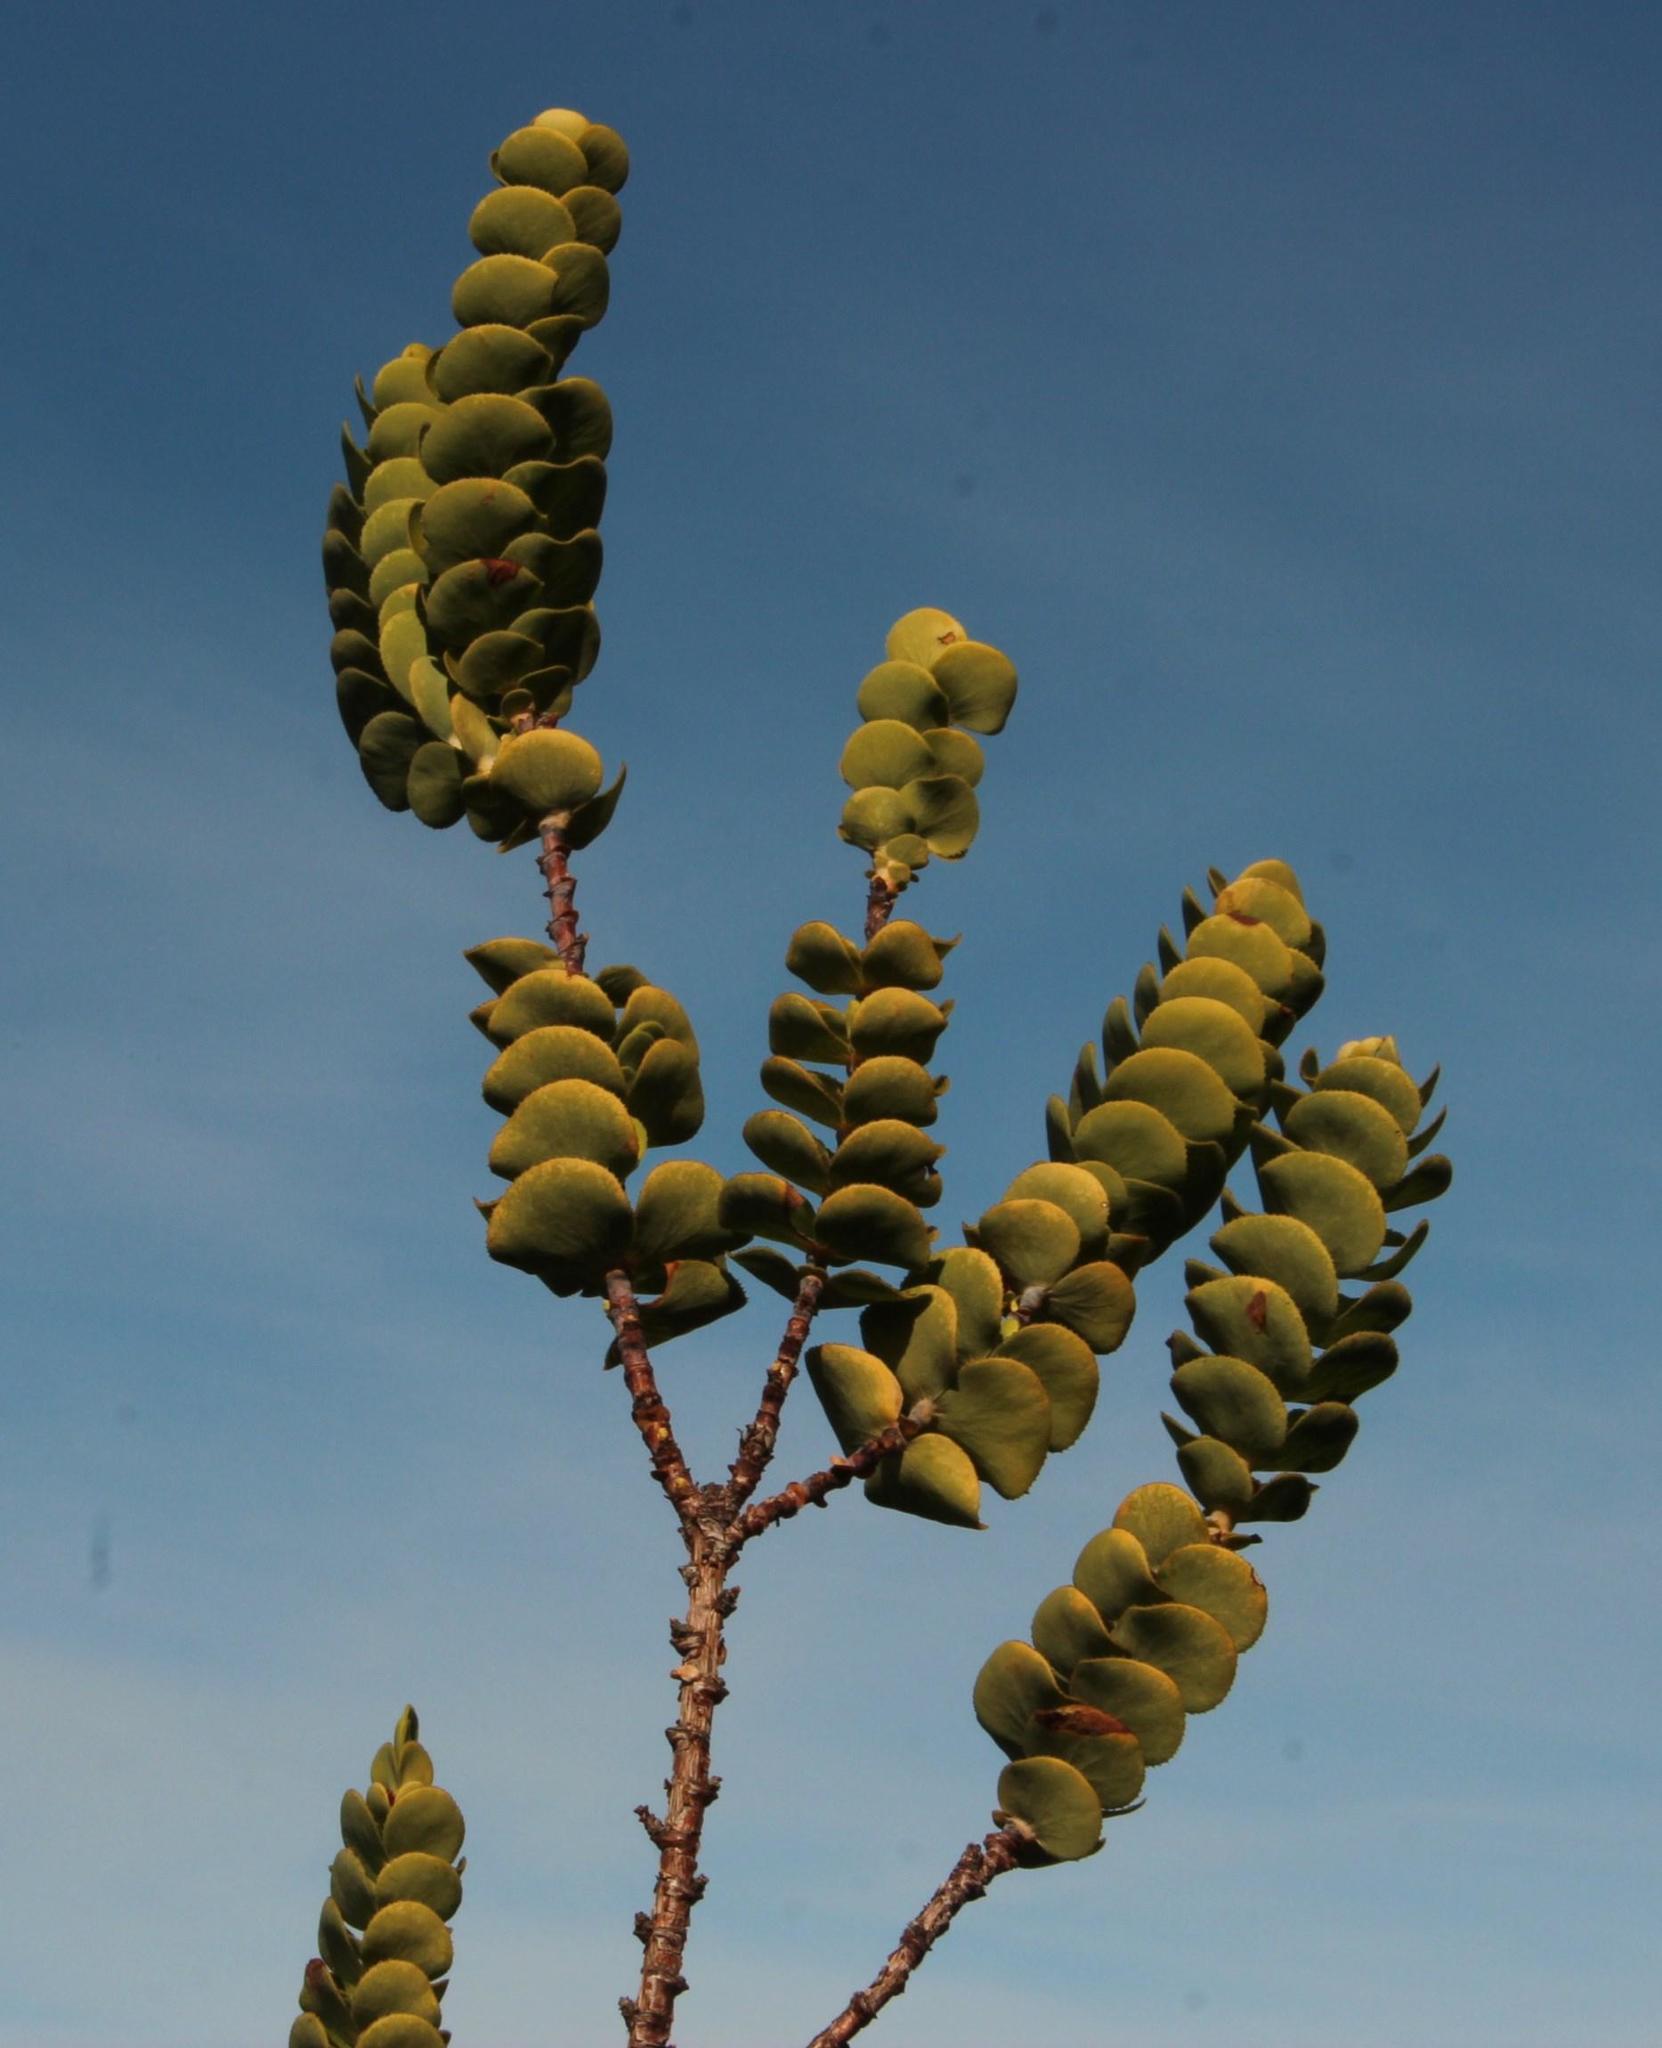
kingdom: Plantae
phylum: Tracheophyta
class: Magnoliopsida
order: Rosales
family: Rosaceae
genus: Cliffortia
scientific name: Cliffortia crenata
